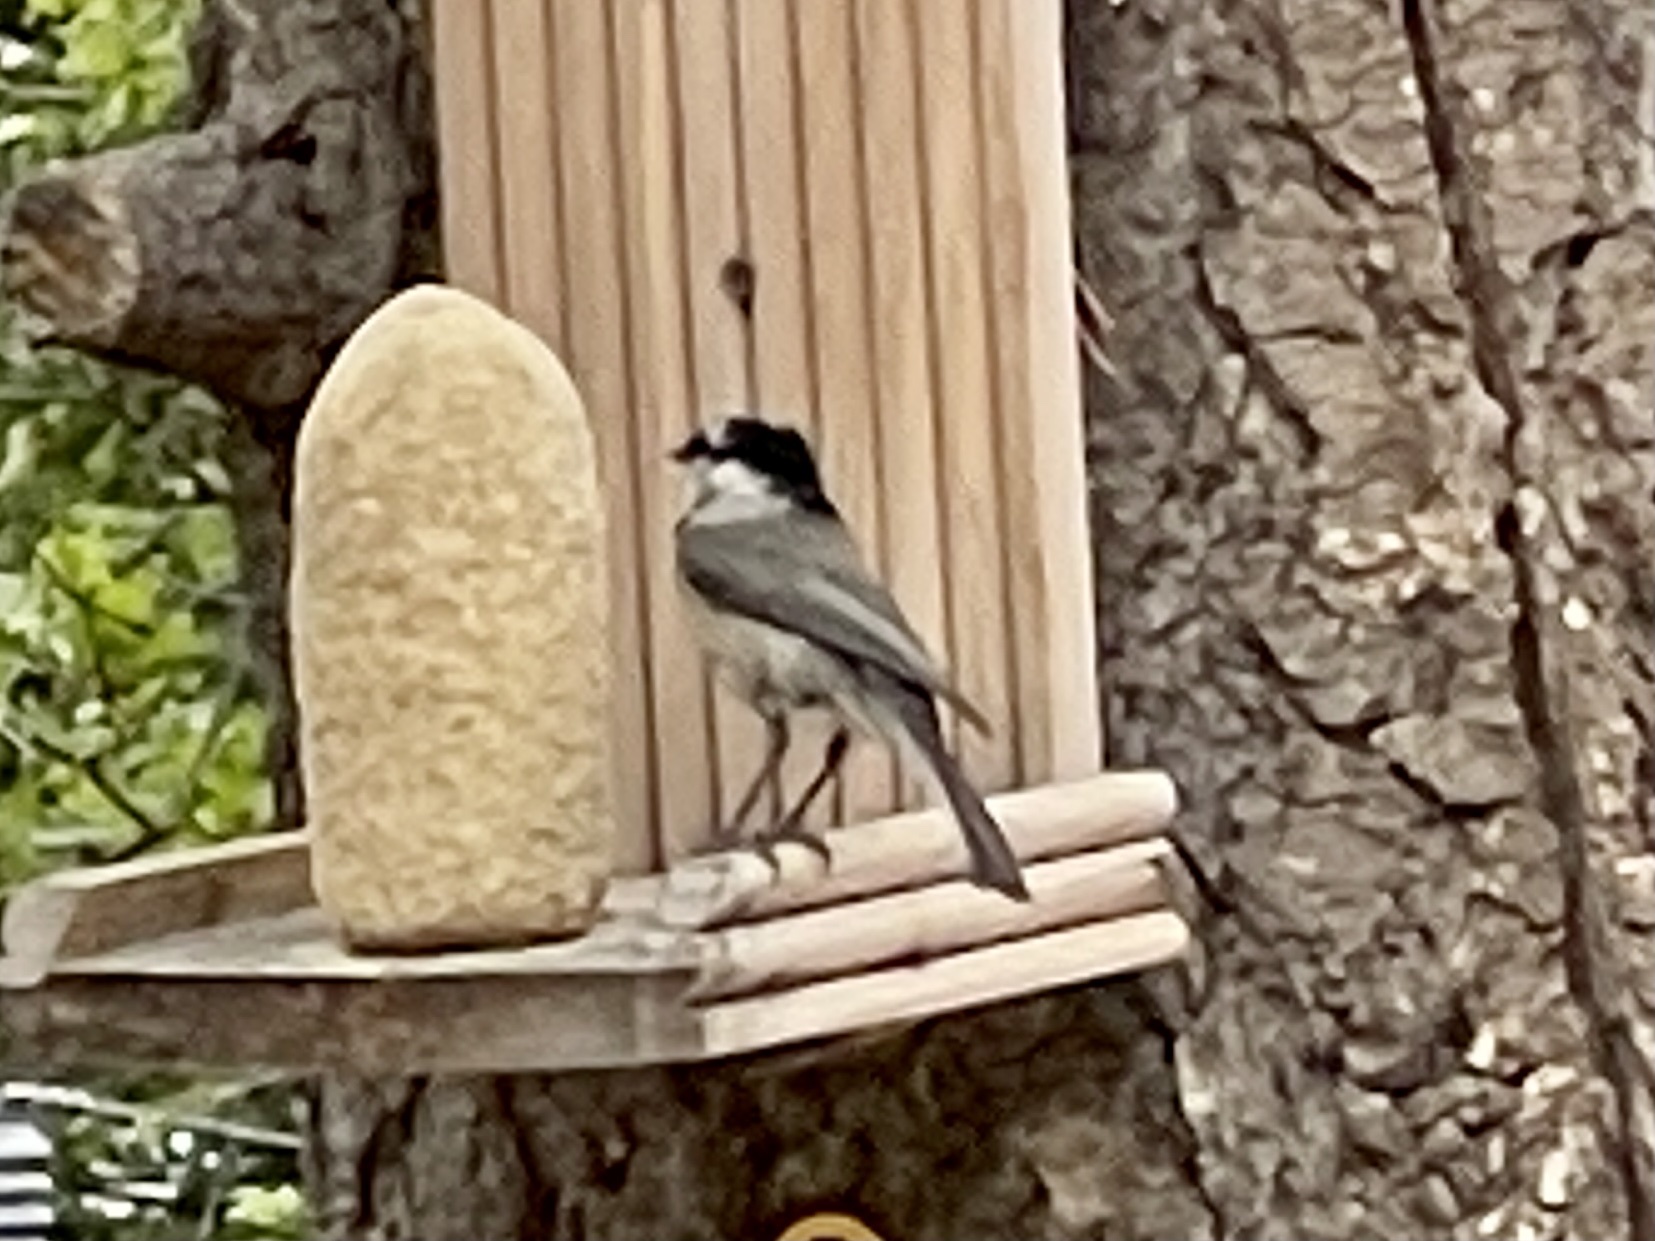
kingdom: Animalia
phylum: Chordata
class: Aves
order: Passeriformes
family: Paridae
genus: Poecile
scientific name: Poecile gambeli
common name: Mountain chickadee
